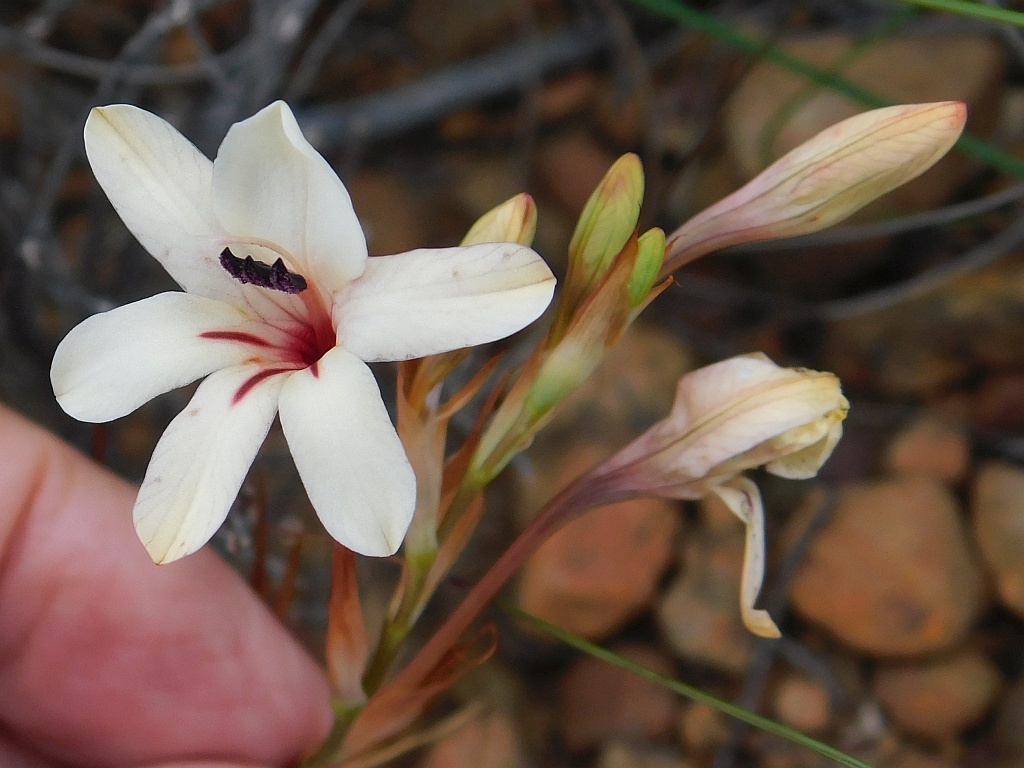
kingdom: Plantae
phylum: Tracheophyta
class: Liliopsida
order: Asparagales
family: Iridaceae
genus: Tritonia
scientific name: Tritonia cooperi
